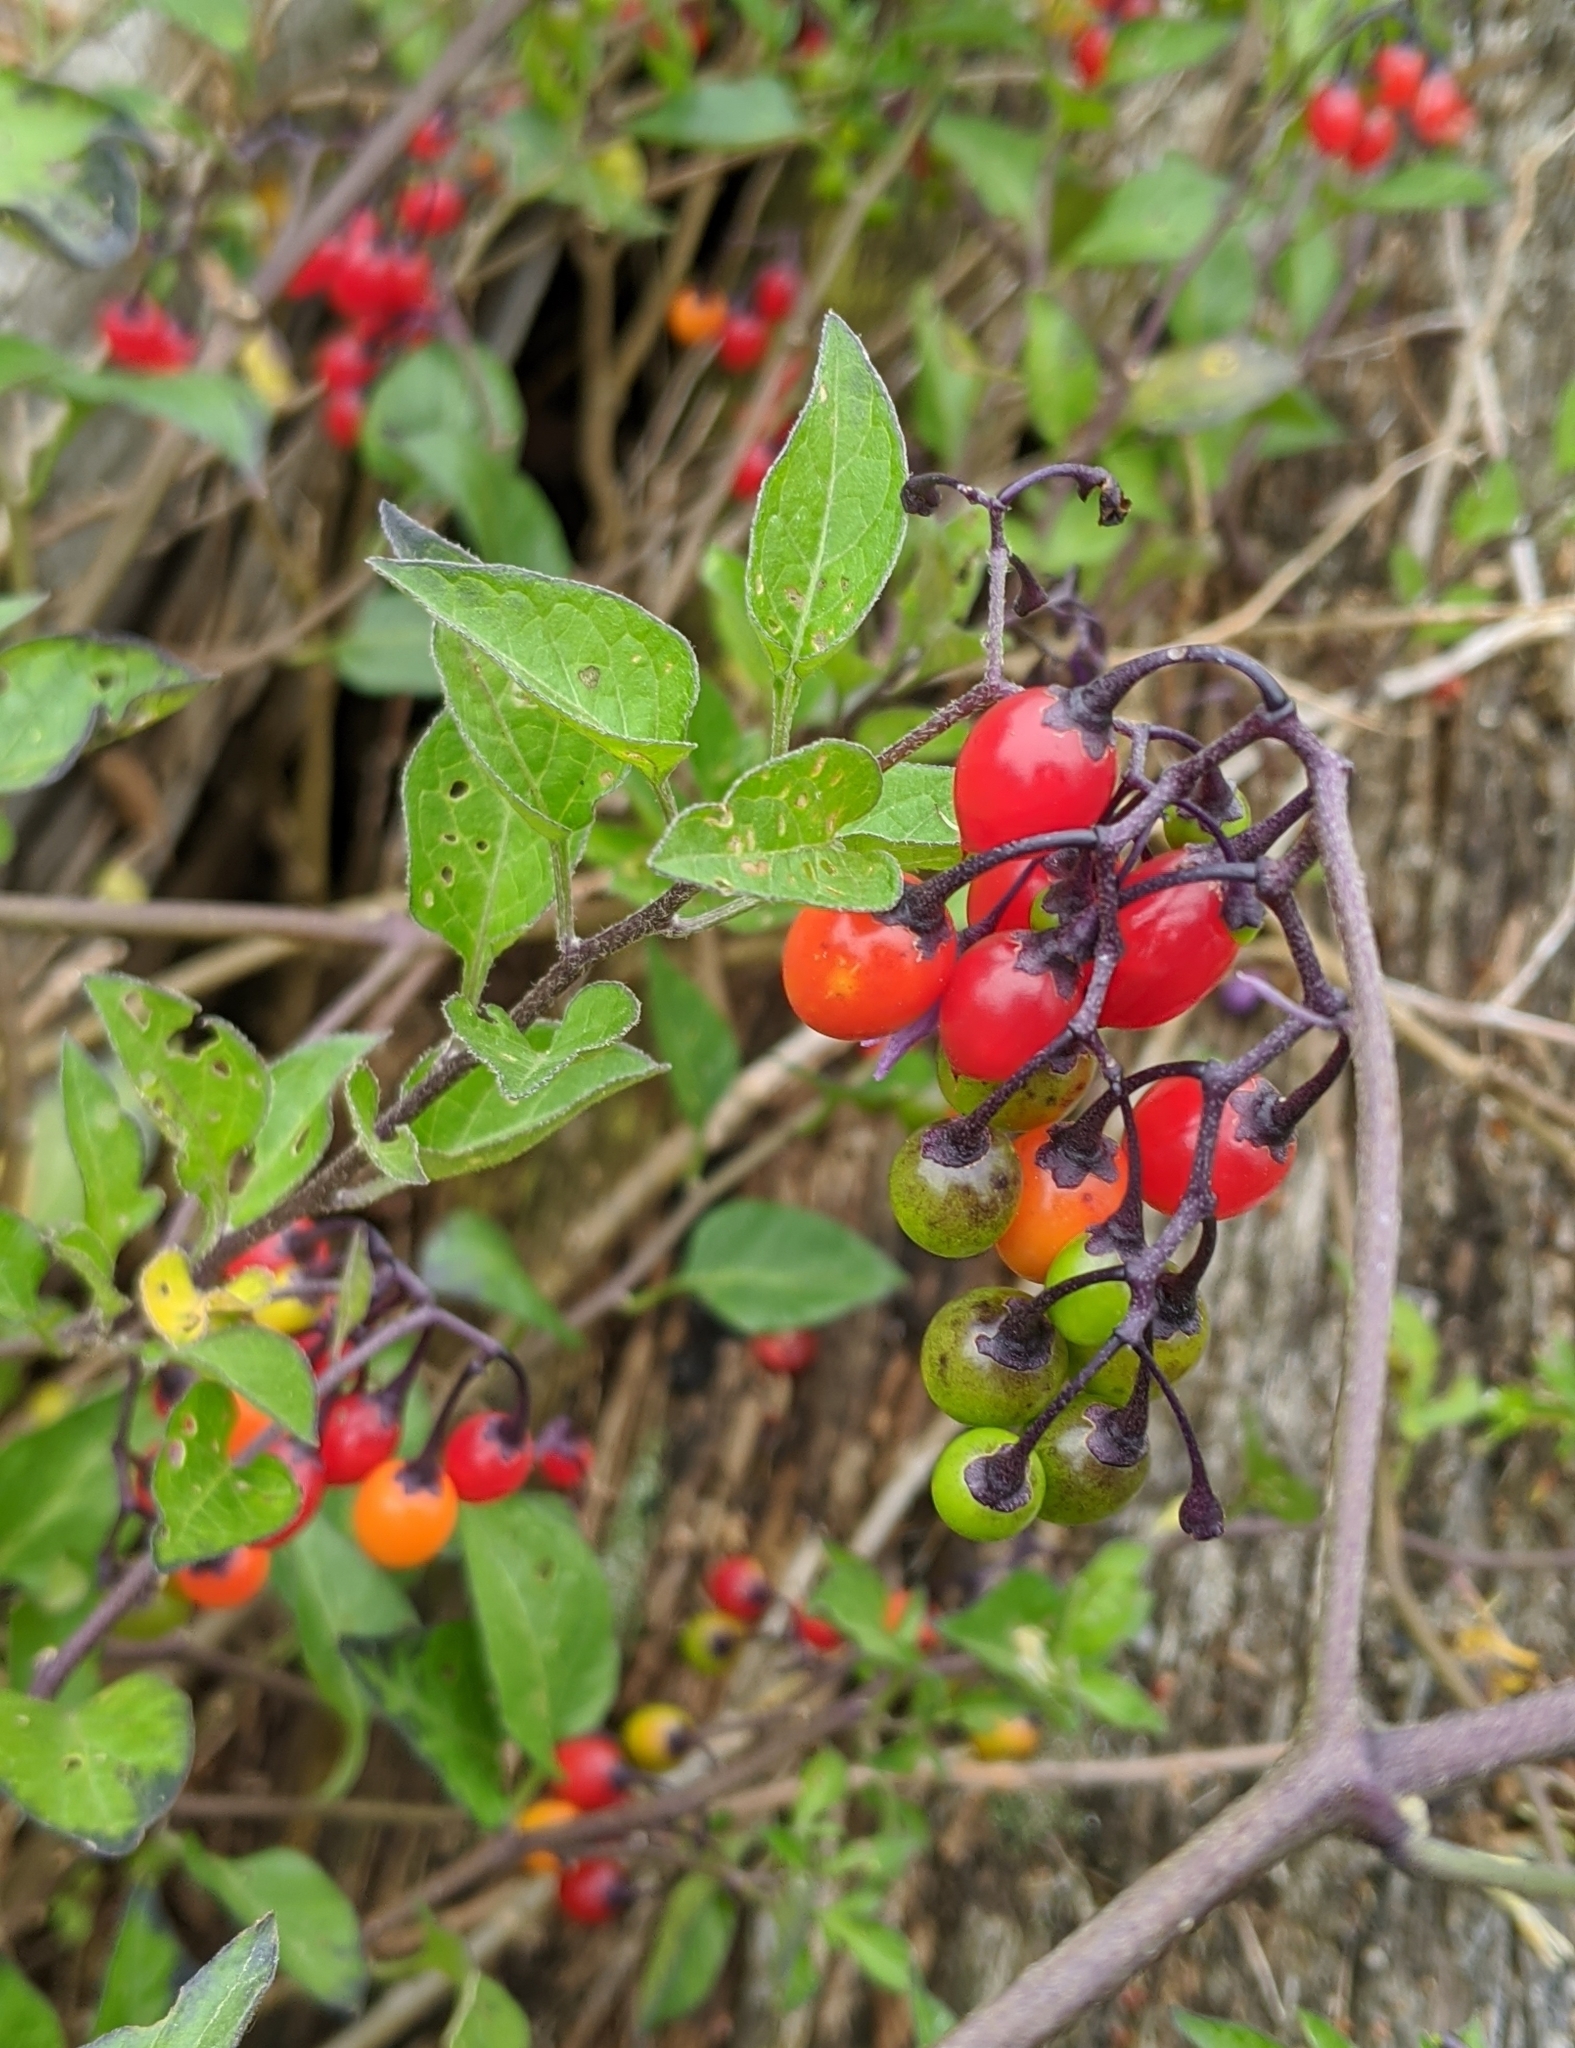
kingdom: Plantae
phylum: Tracheophyta
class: Magnoliopsida
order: Solanales
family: Solanaceae
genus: Solanum
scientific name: Solanum dulcamara
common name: Climbing nightshade
